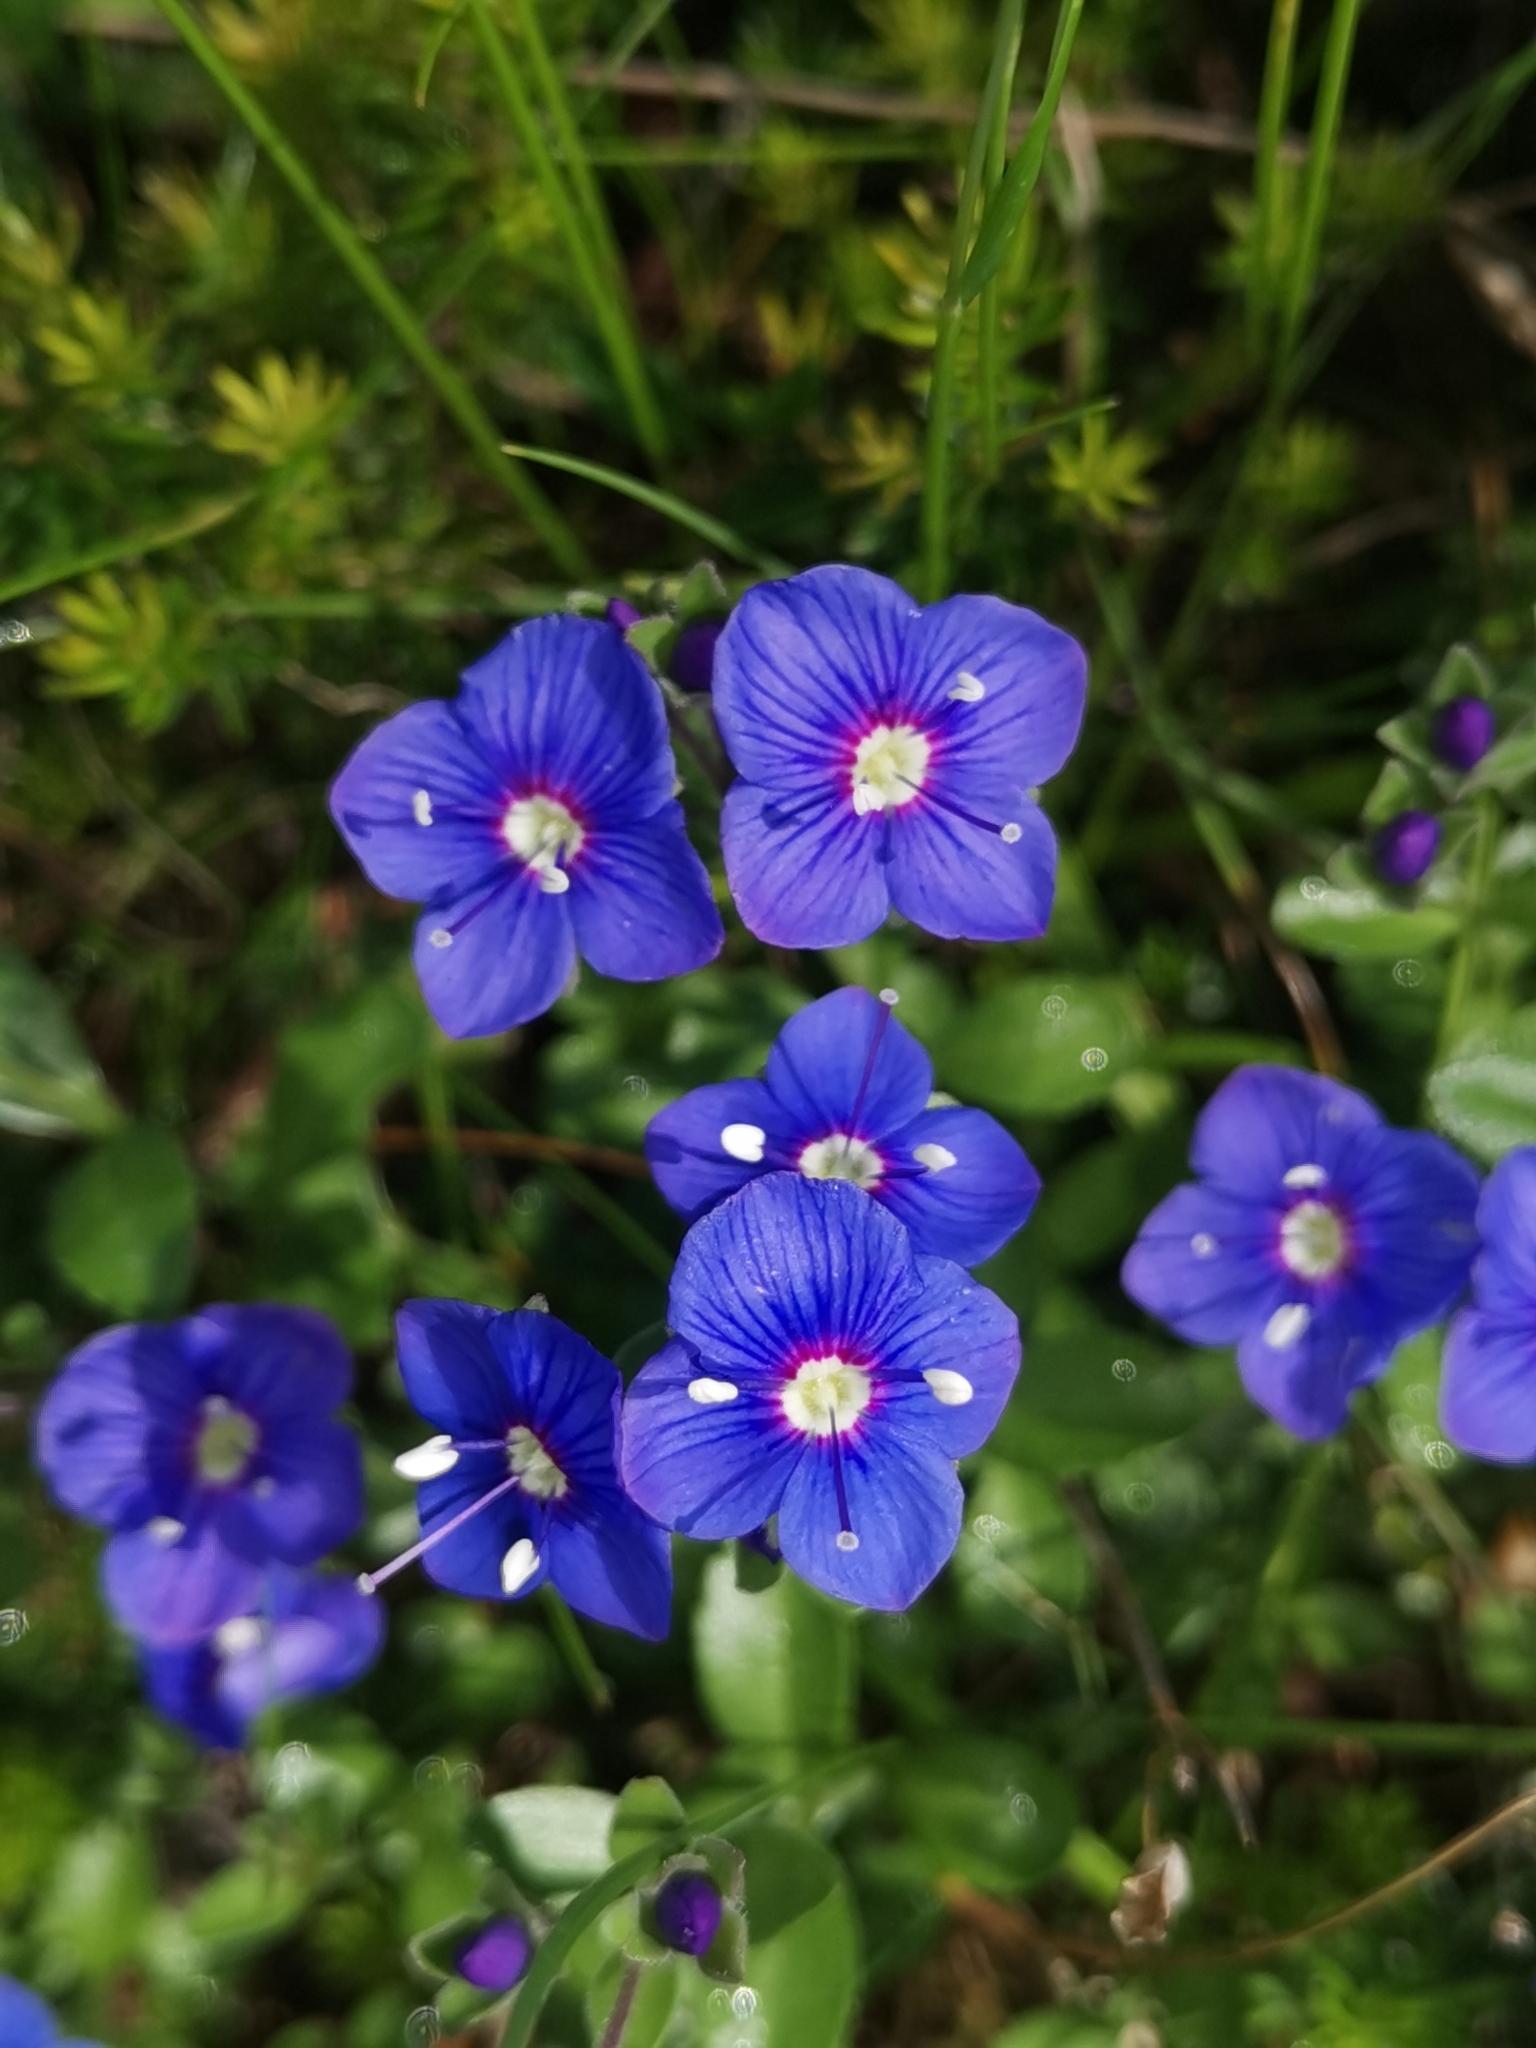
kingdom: Plantae
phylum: Tracheophyta
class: Magnoliopsida
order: Lamiales
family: Plantaginaceae
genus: Veronica
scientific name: Veronica fruticans
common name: Rock speedwell
